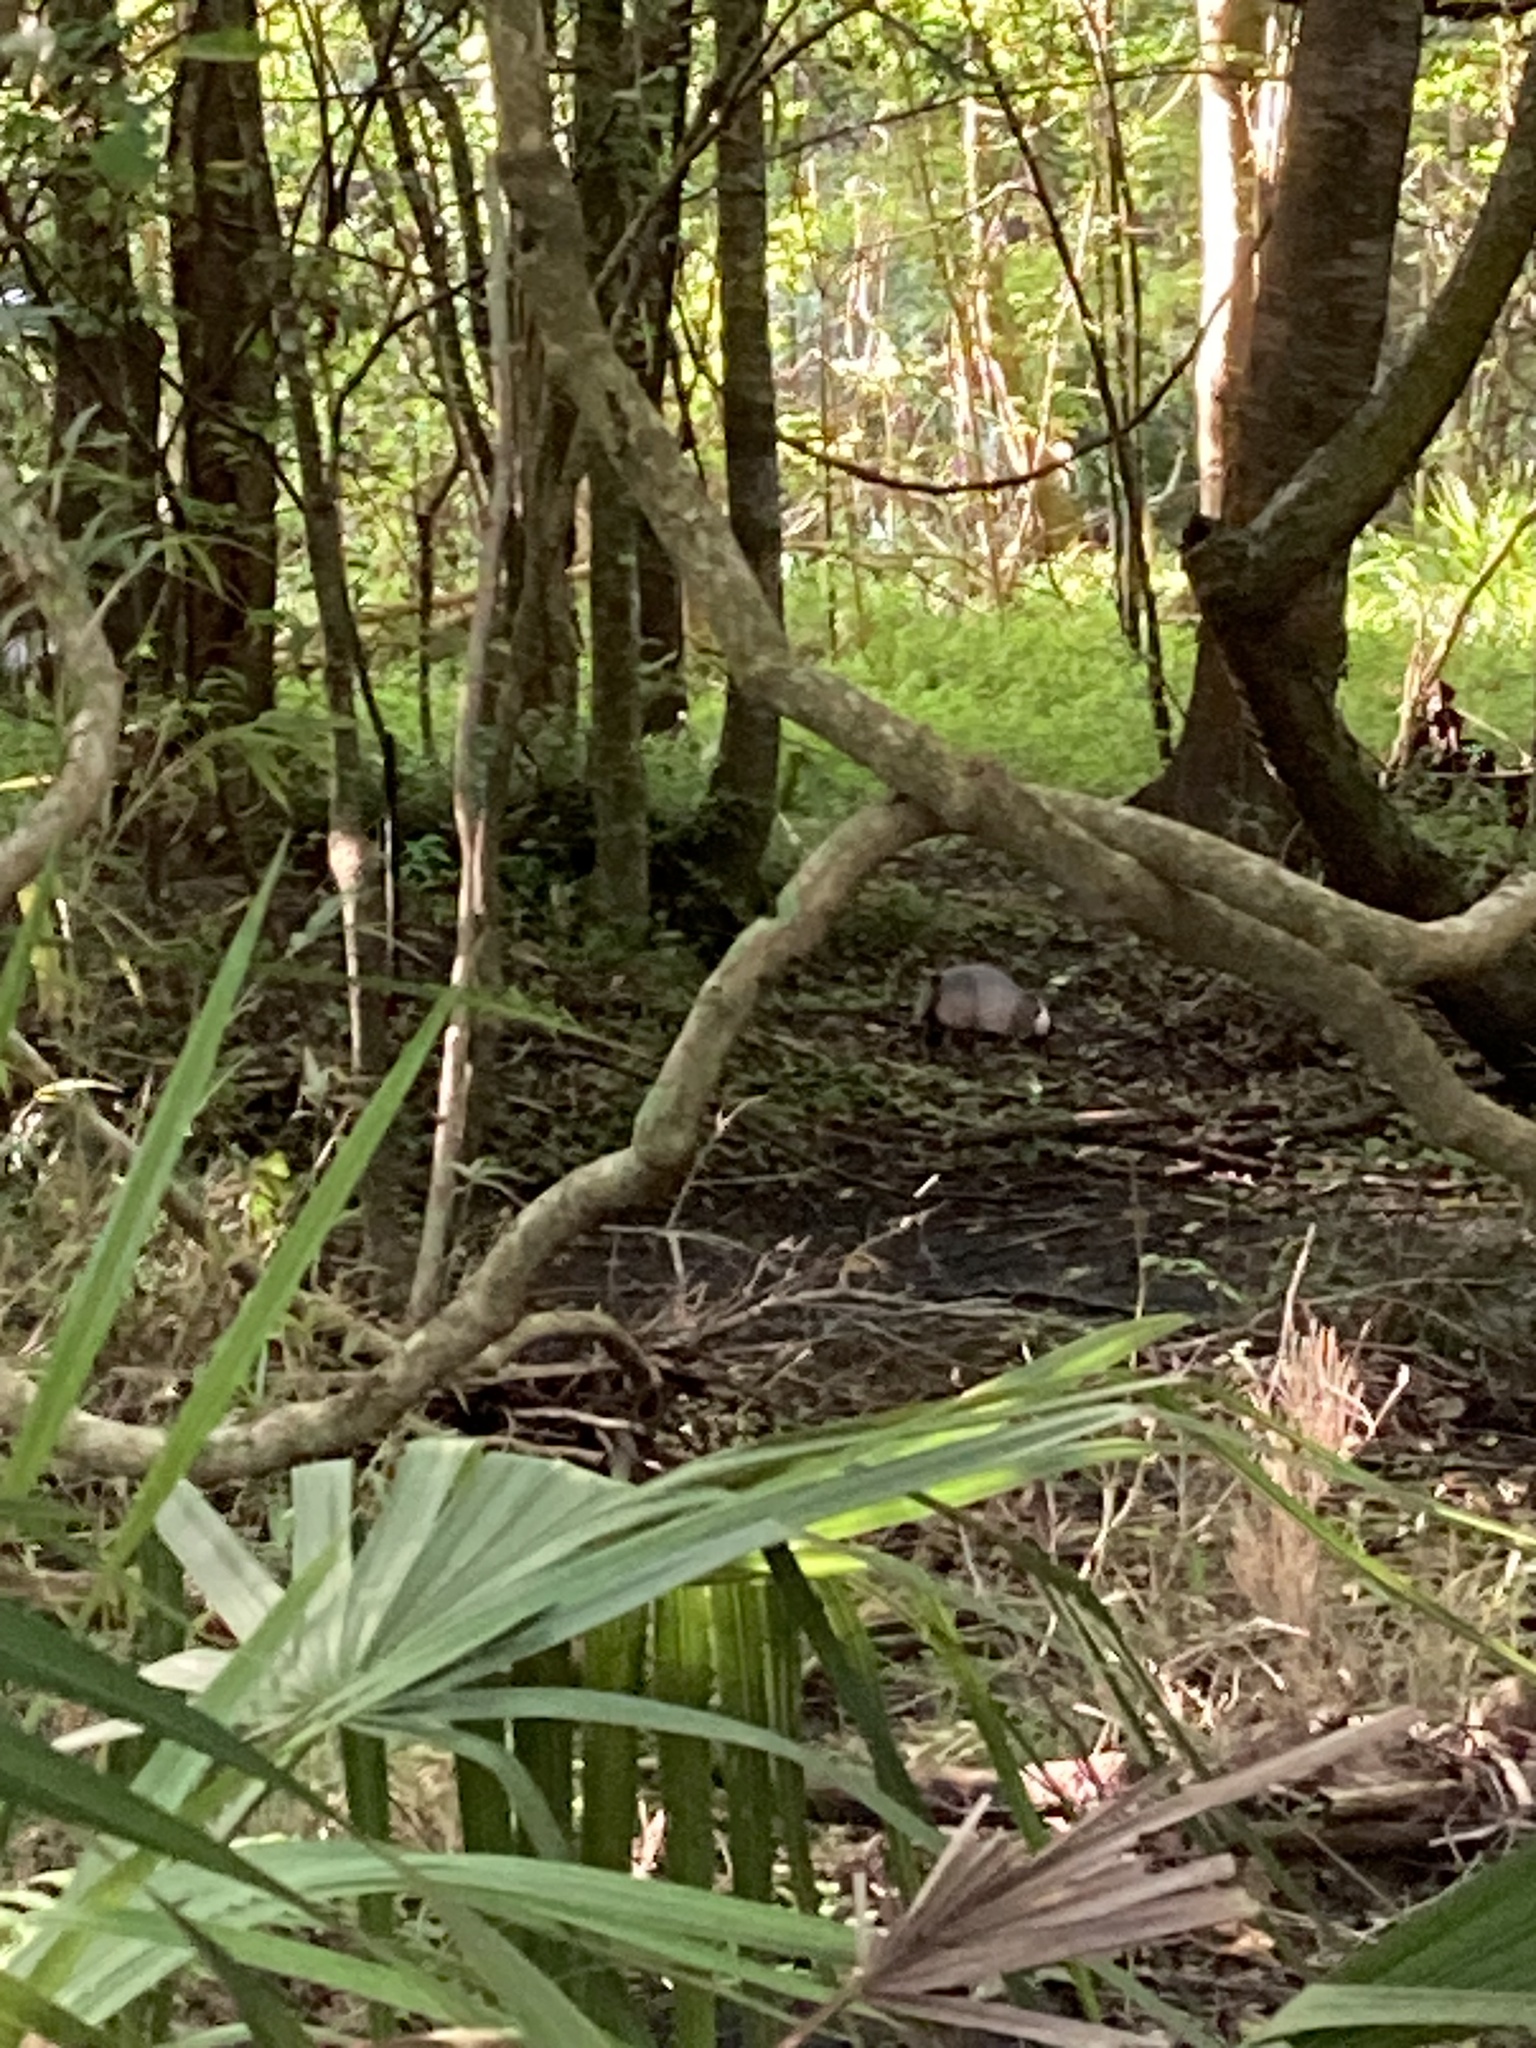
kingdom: Animalia
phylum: Chordata
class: Mammalia
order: Cingulata
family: Dasypodidae
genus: Dasypus
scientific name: Dasypus novemcinctus
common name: Nine-banded armadillo
